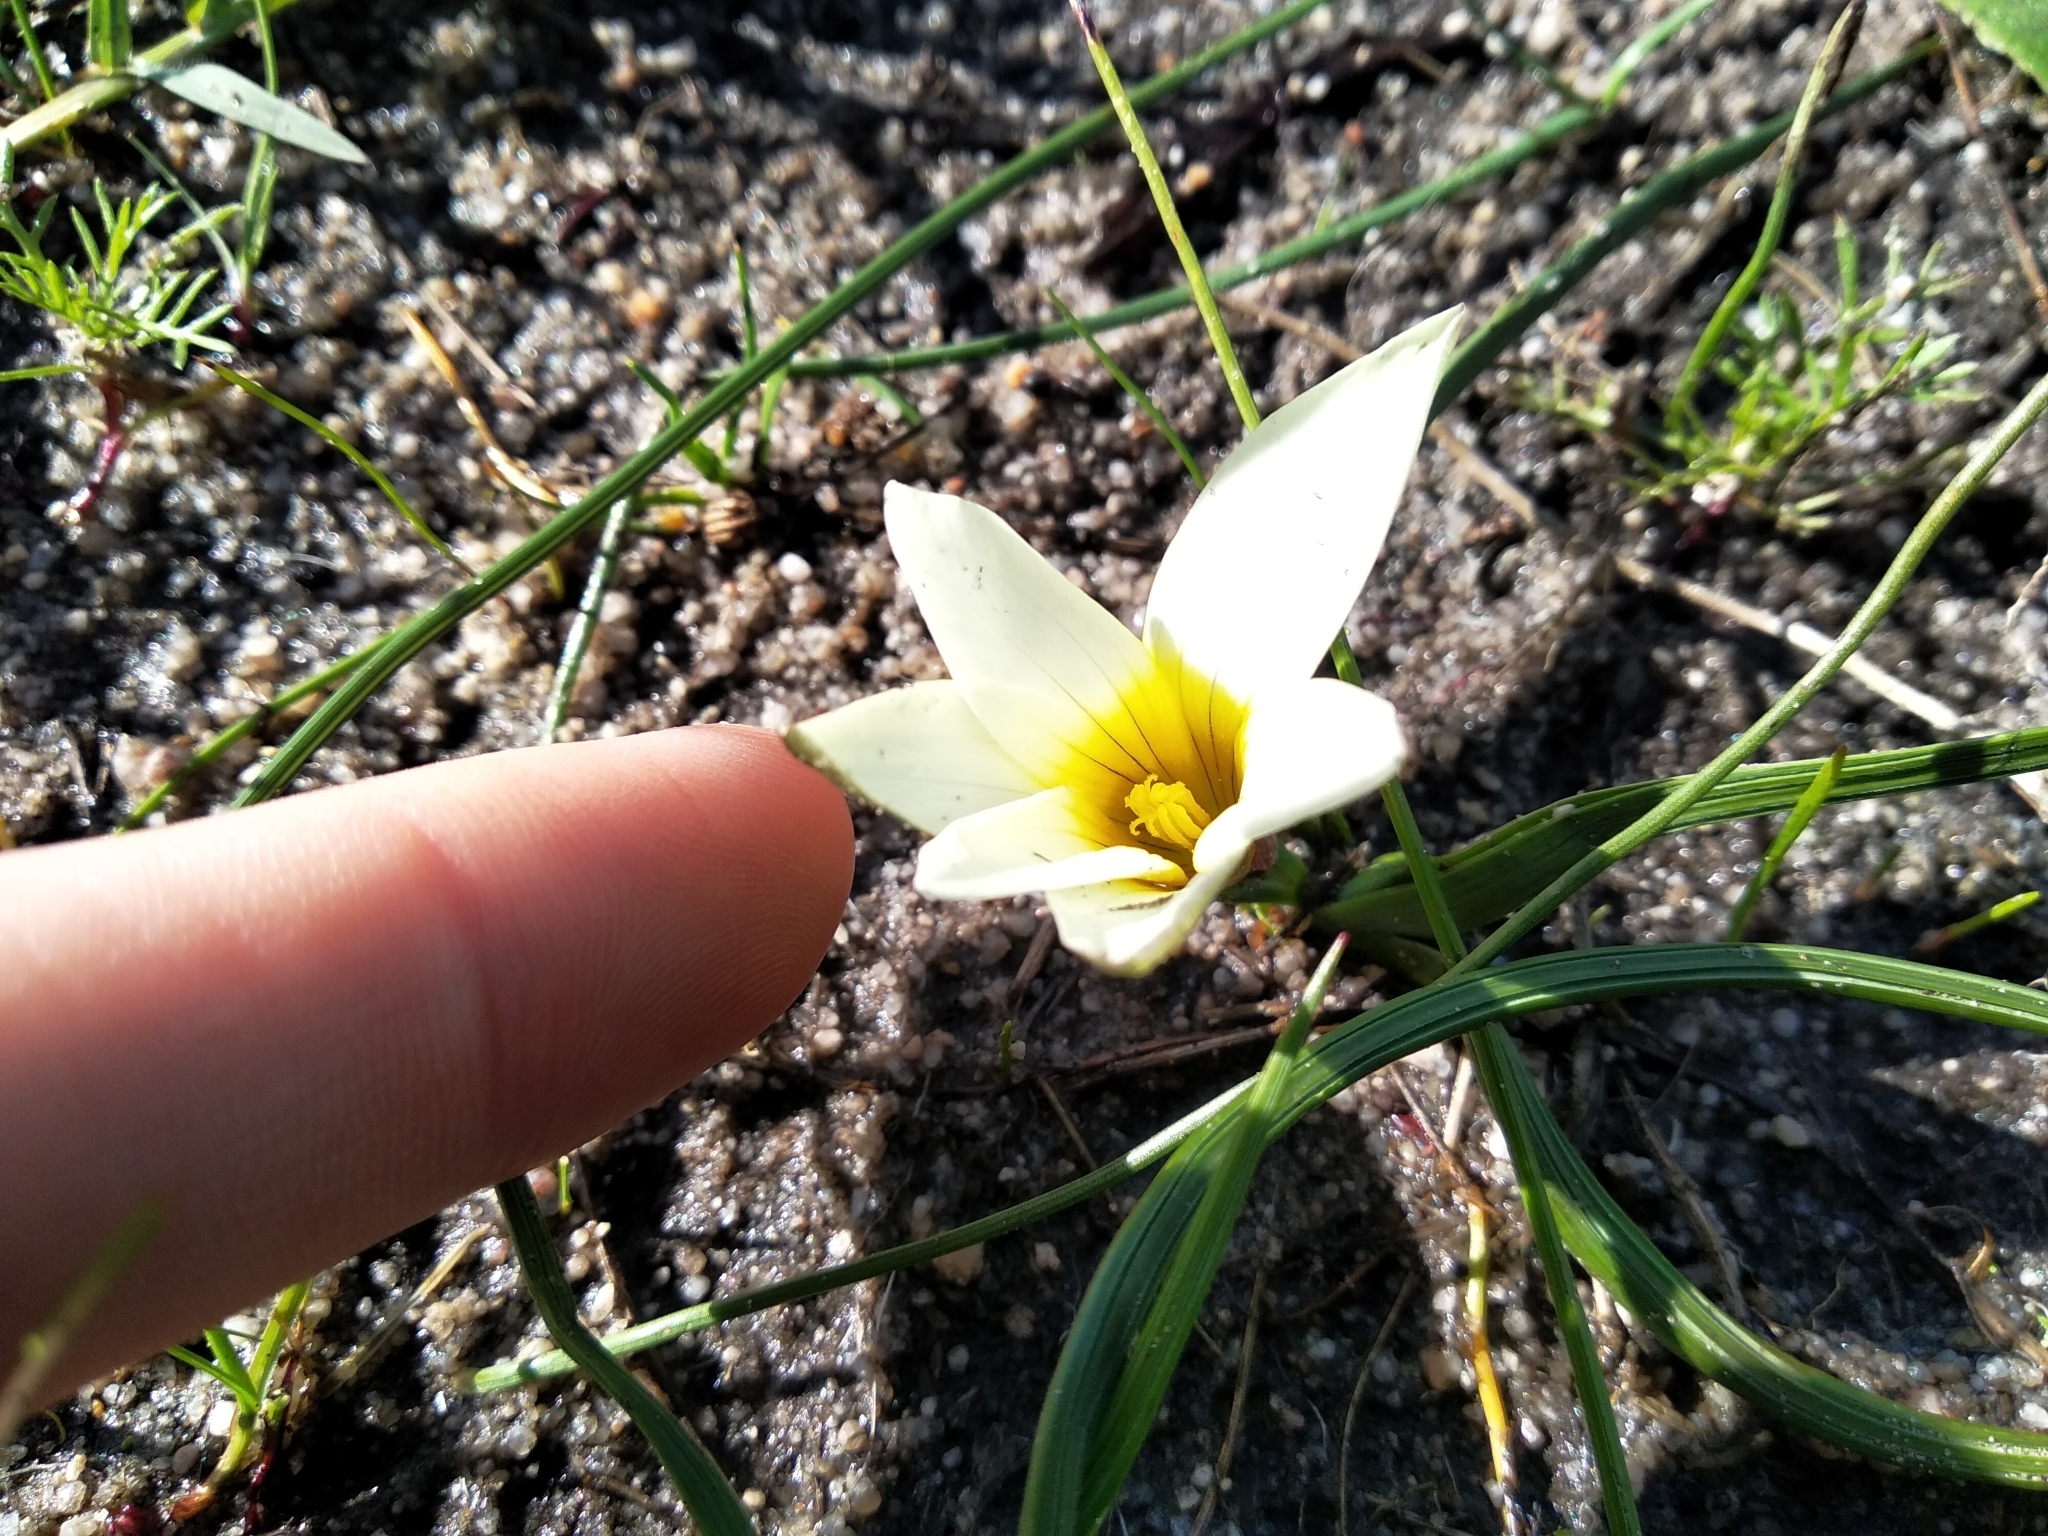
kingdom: Plantae
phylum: Tracheophyta
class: Liliopsida
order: Asparagales
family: Iridaceae
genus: Romulea
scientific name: Romulea flava
